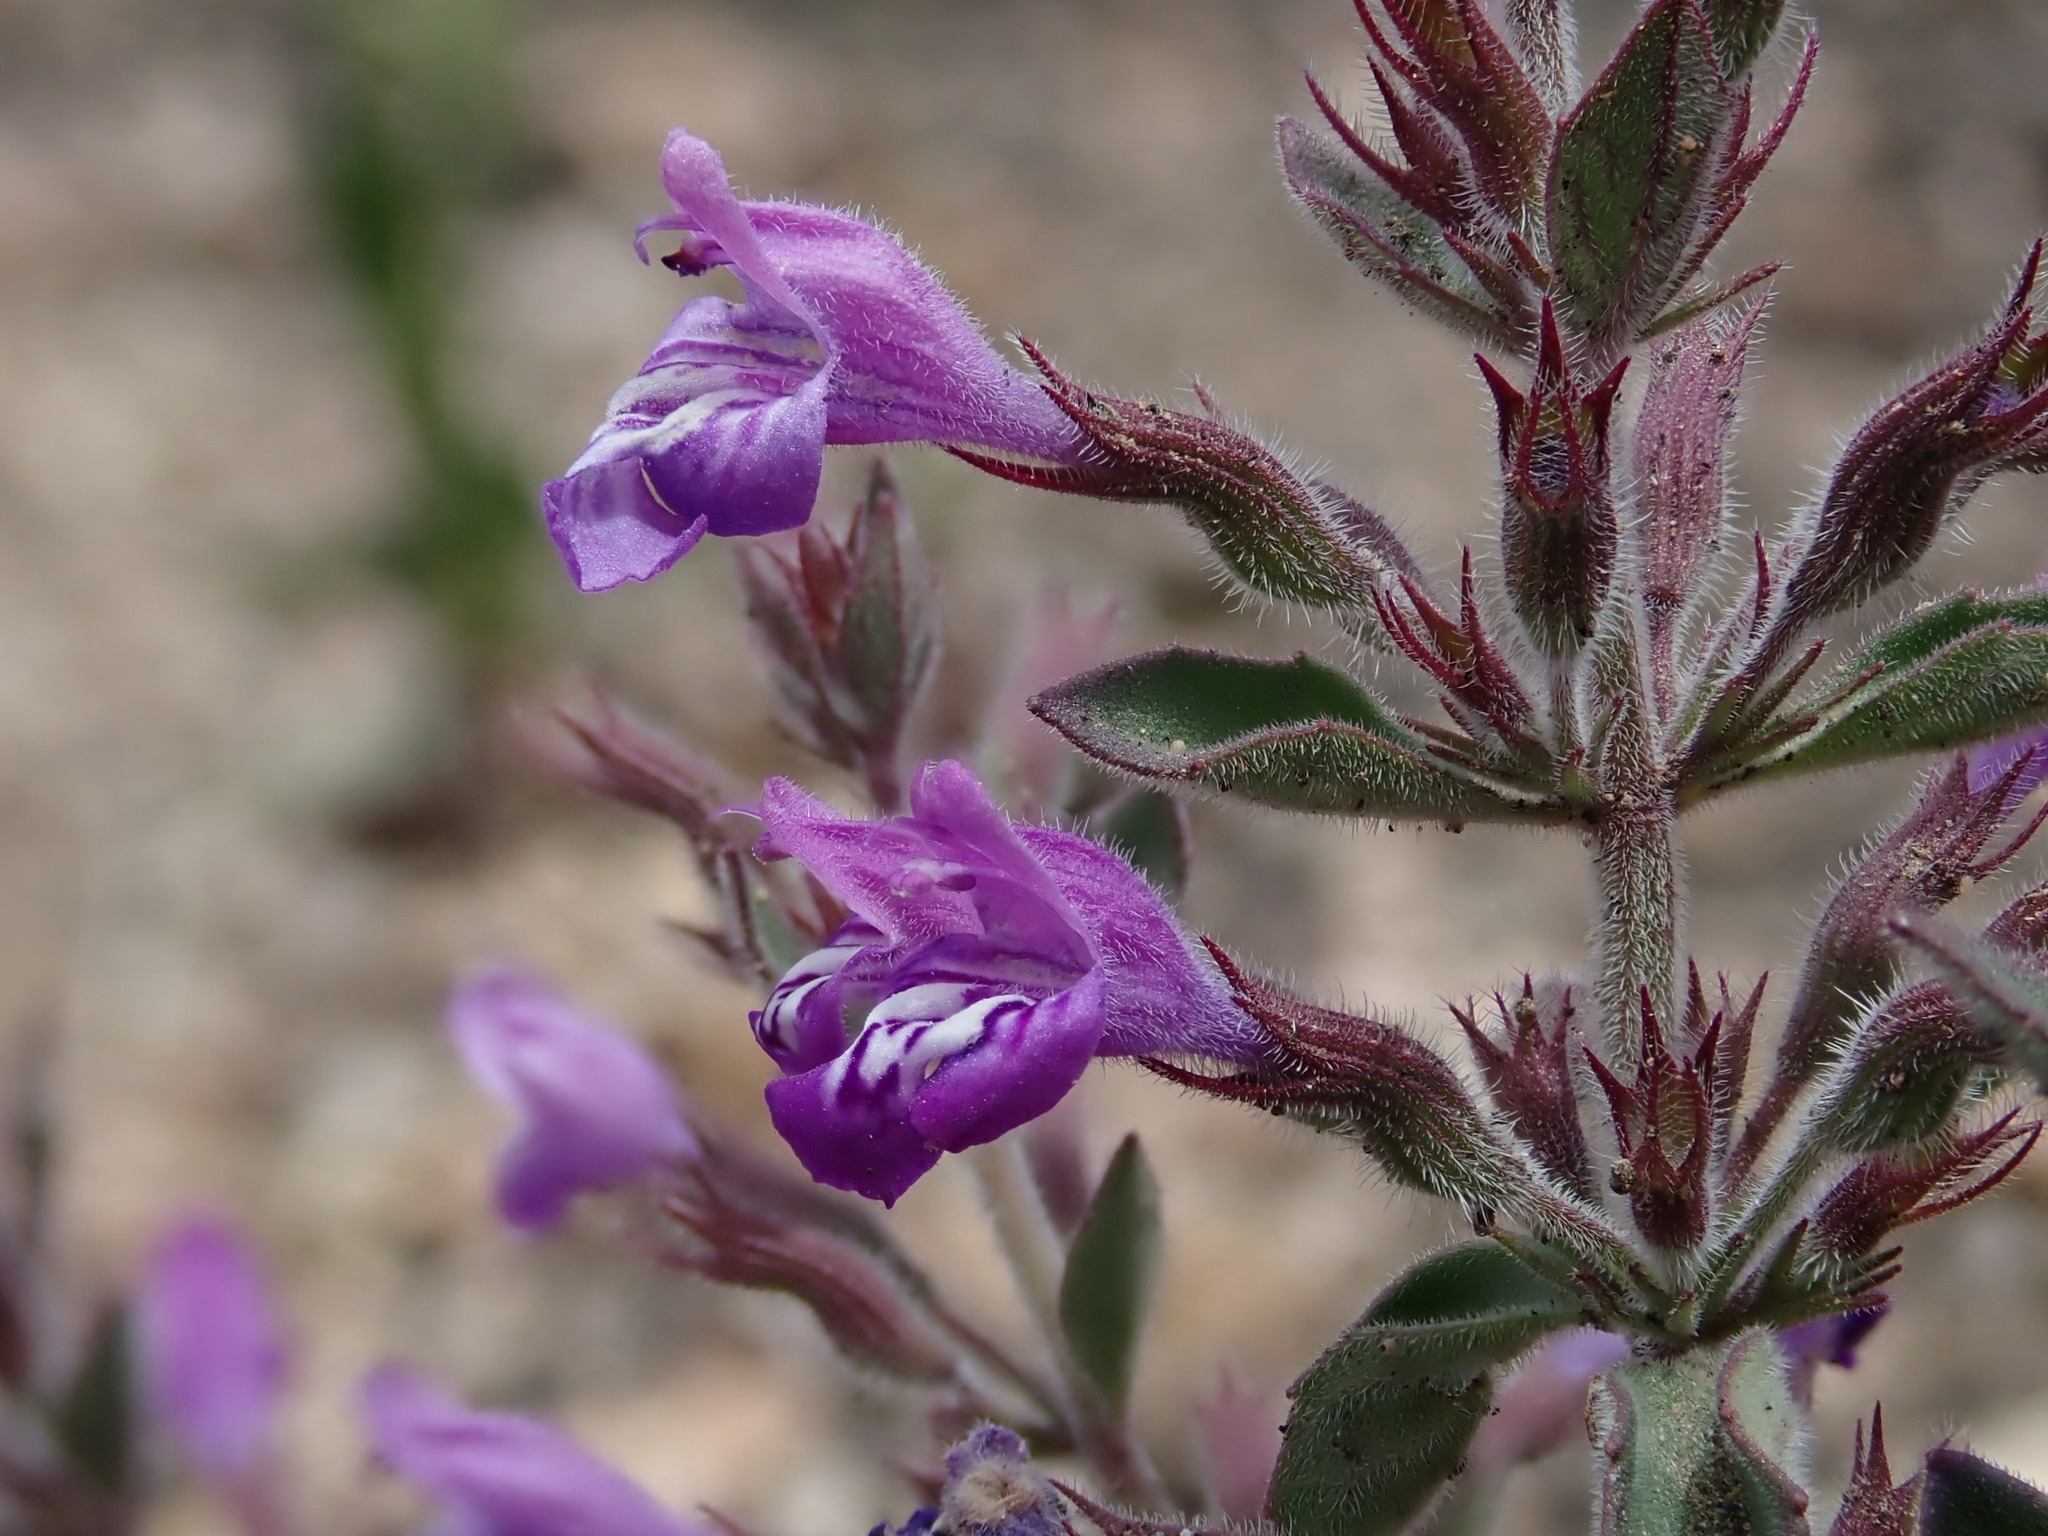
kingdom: Plantae
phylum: Tracheophyta
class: Magnoliopsida
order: Lamiales
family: Lamiaceae
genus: Hedeoma
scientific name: Hedeoma nana
